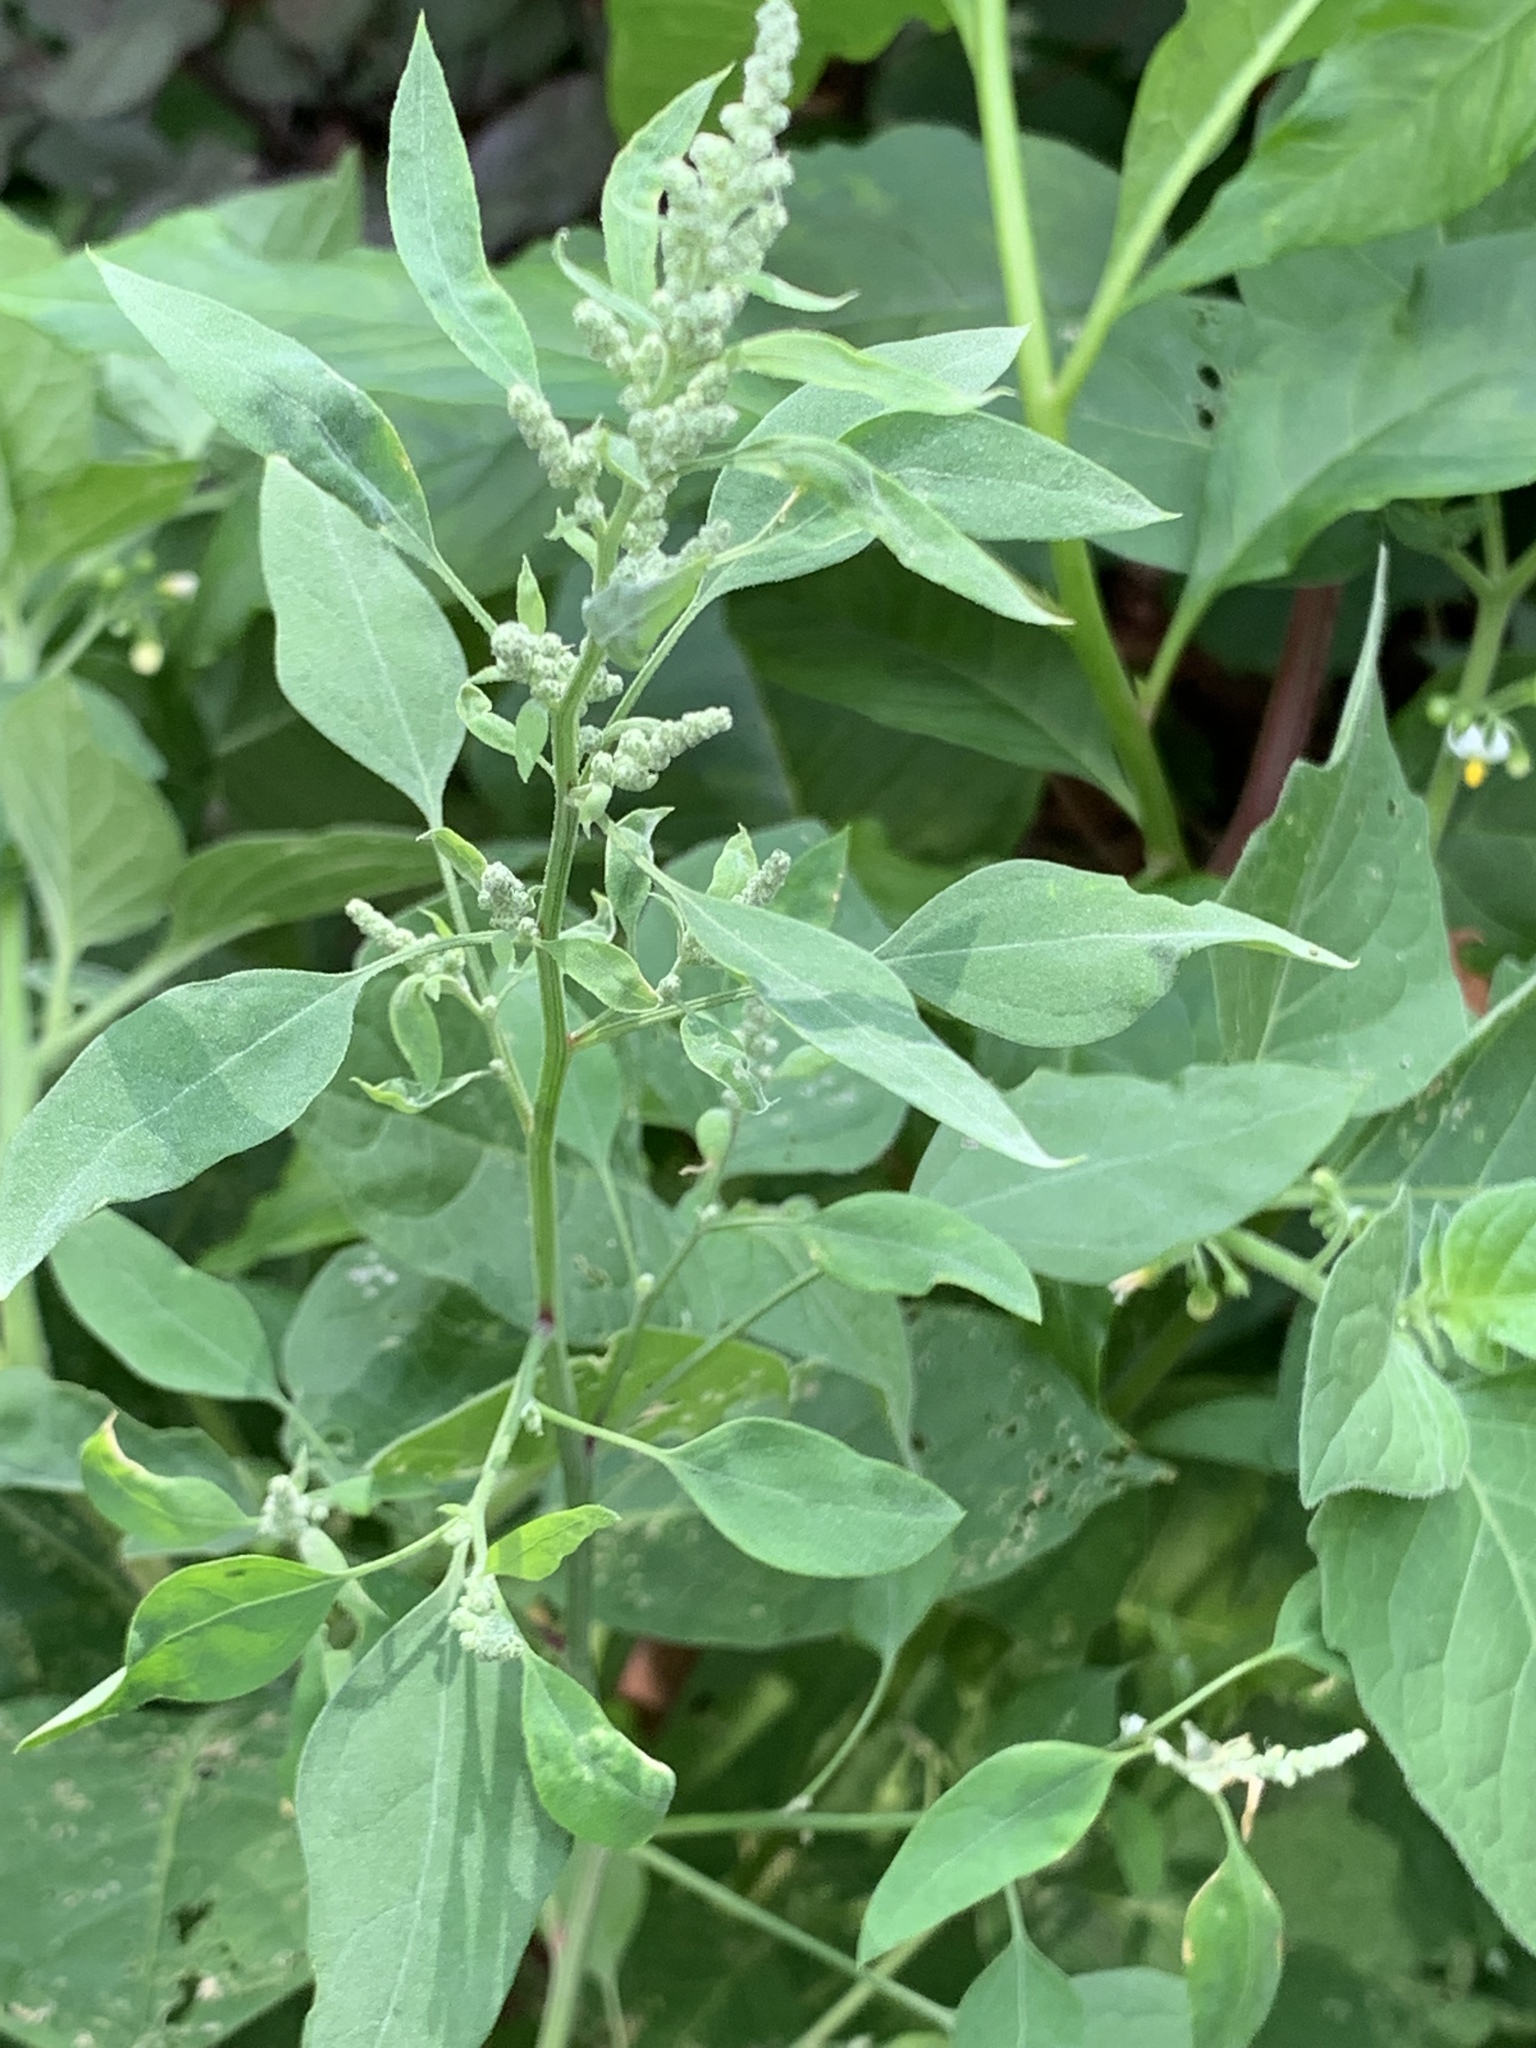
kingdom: Plantae
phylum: Tracheophyta
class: Magnoliopsida
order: Caryophyllales
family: Amaranthaceae
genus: Chenopodium
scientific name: Chenopodium album
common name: Fat-hen
